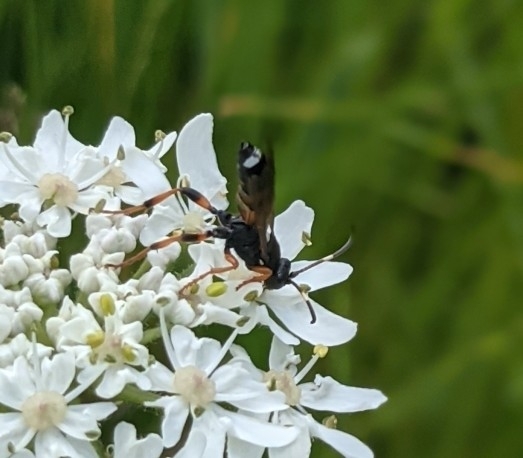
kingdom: Animalia
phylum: Arthropoda
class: Insecta
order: Hymenoptera
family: Ichneumonidae
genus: Ichneumon
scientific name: Ichneumon sarcitorius
